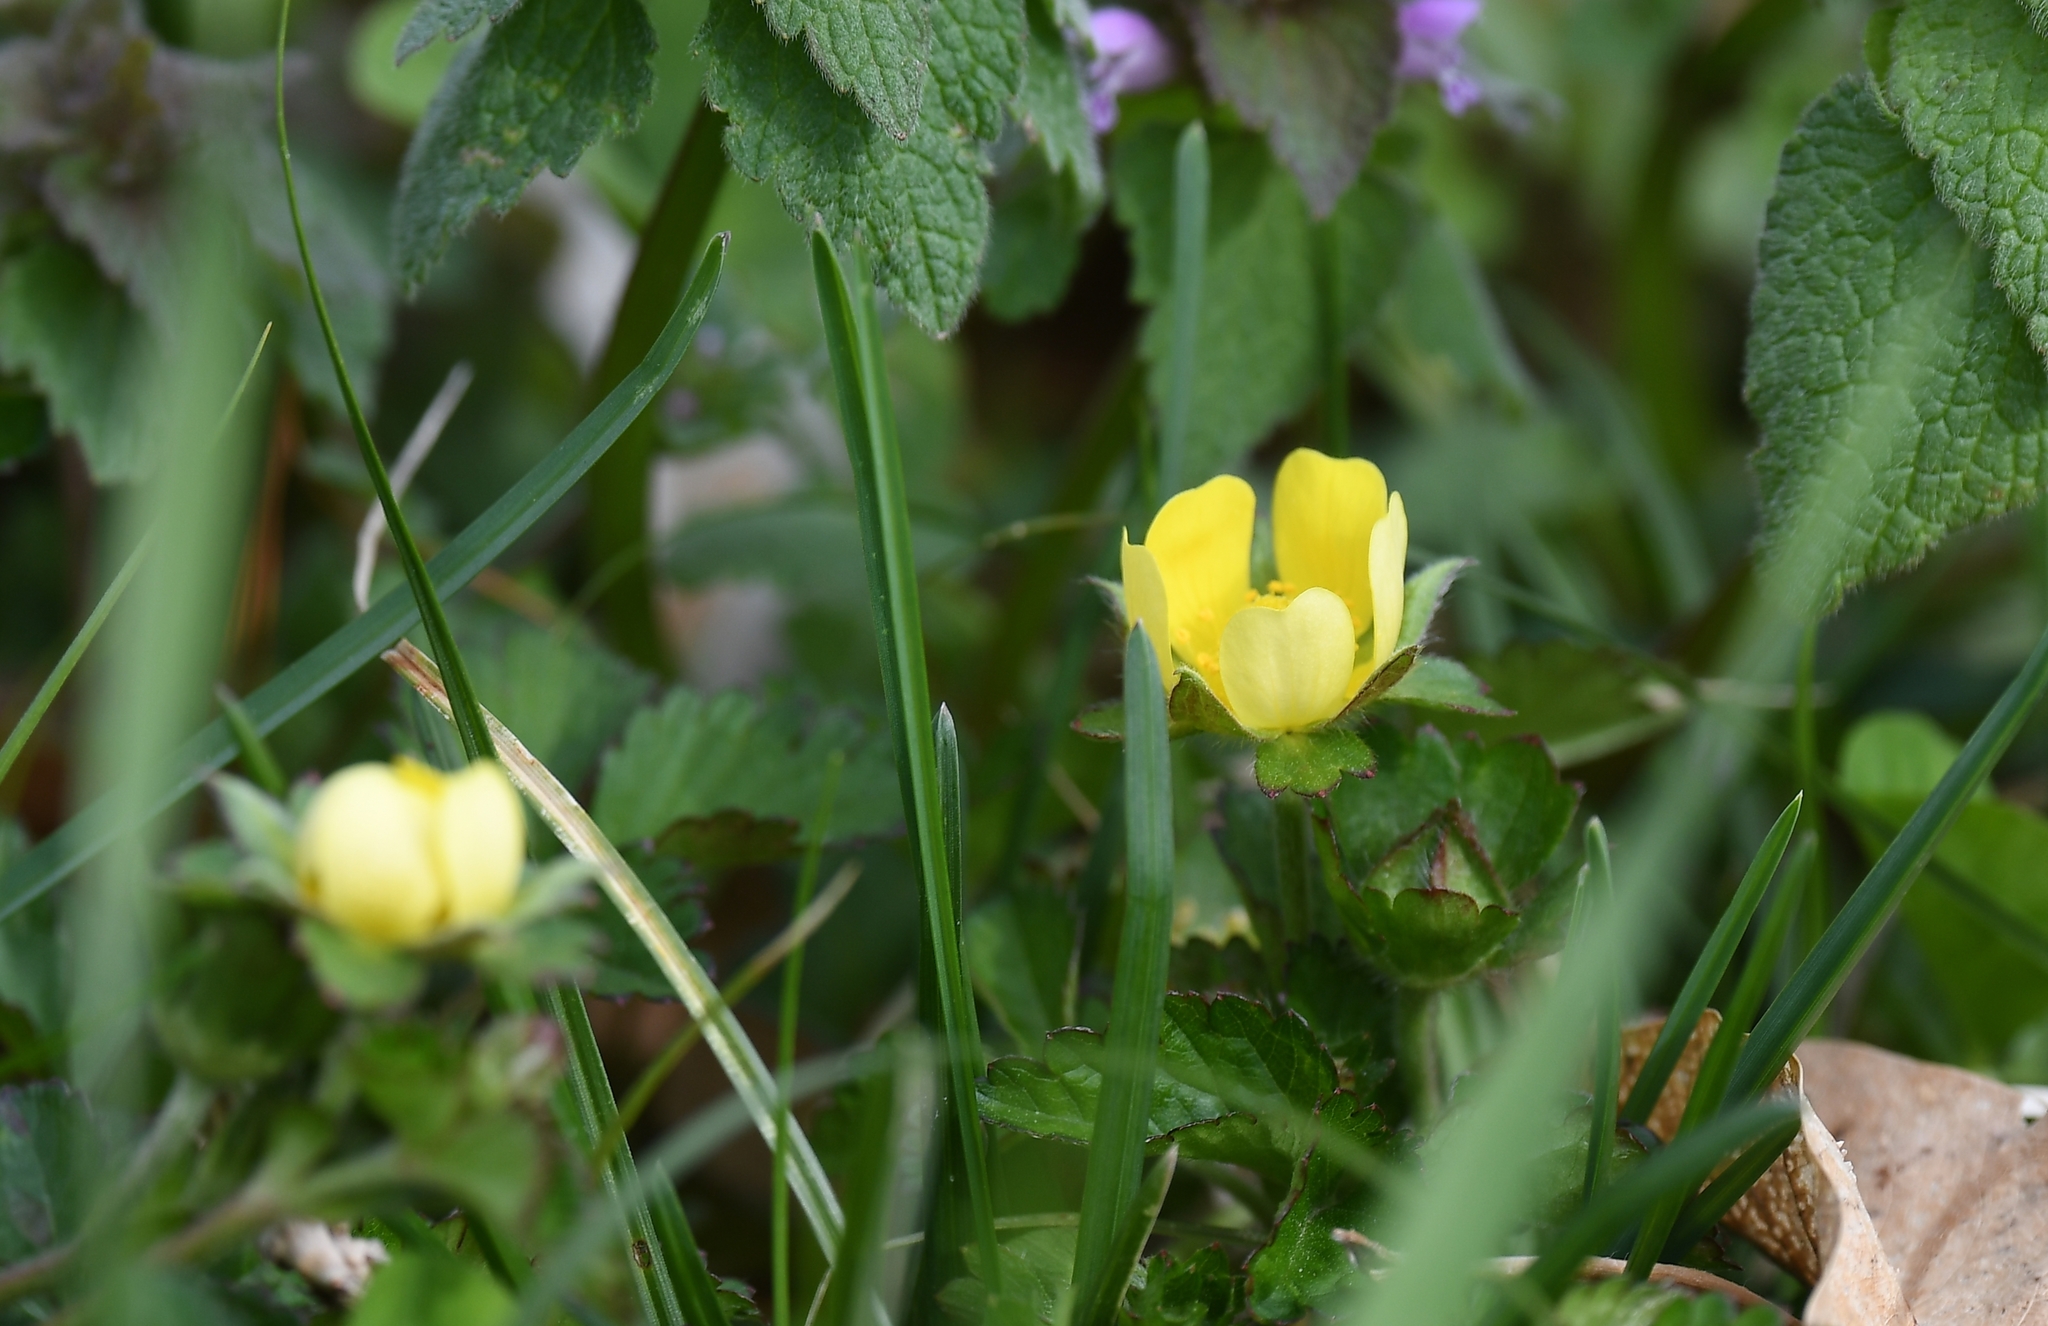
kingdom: Plantae
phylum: Tracheophyta
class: Magnoliopsida
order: Rosales
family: Rosaceae
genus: Potentilla
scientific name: Potentilla indica
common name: Yellow-flowered strawberry
